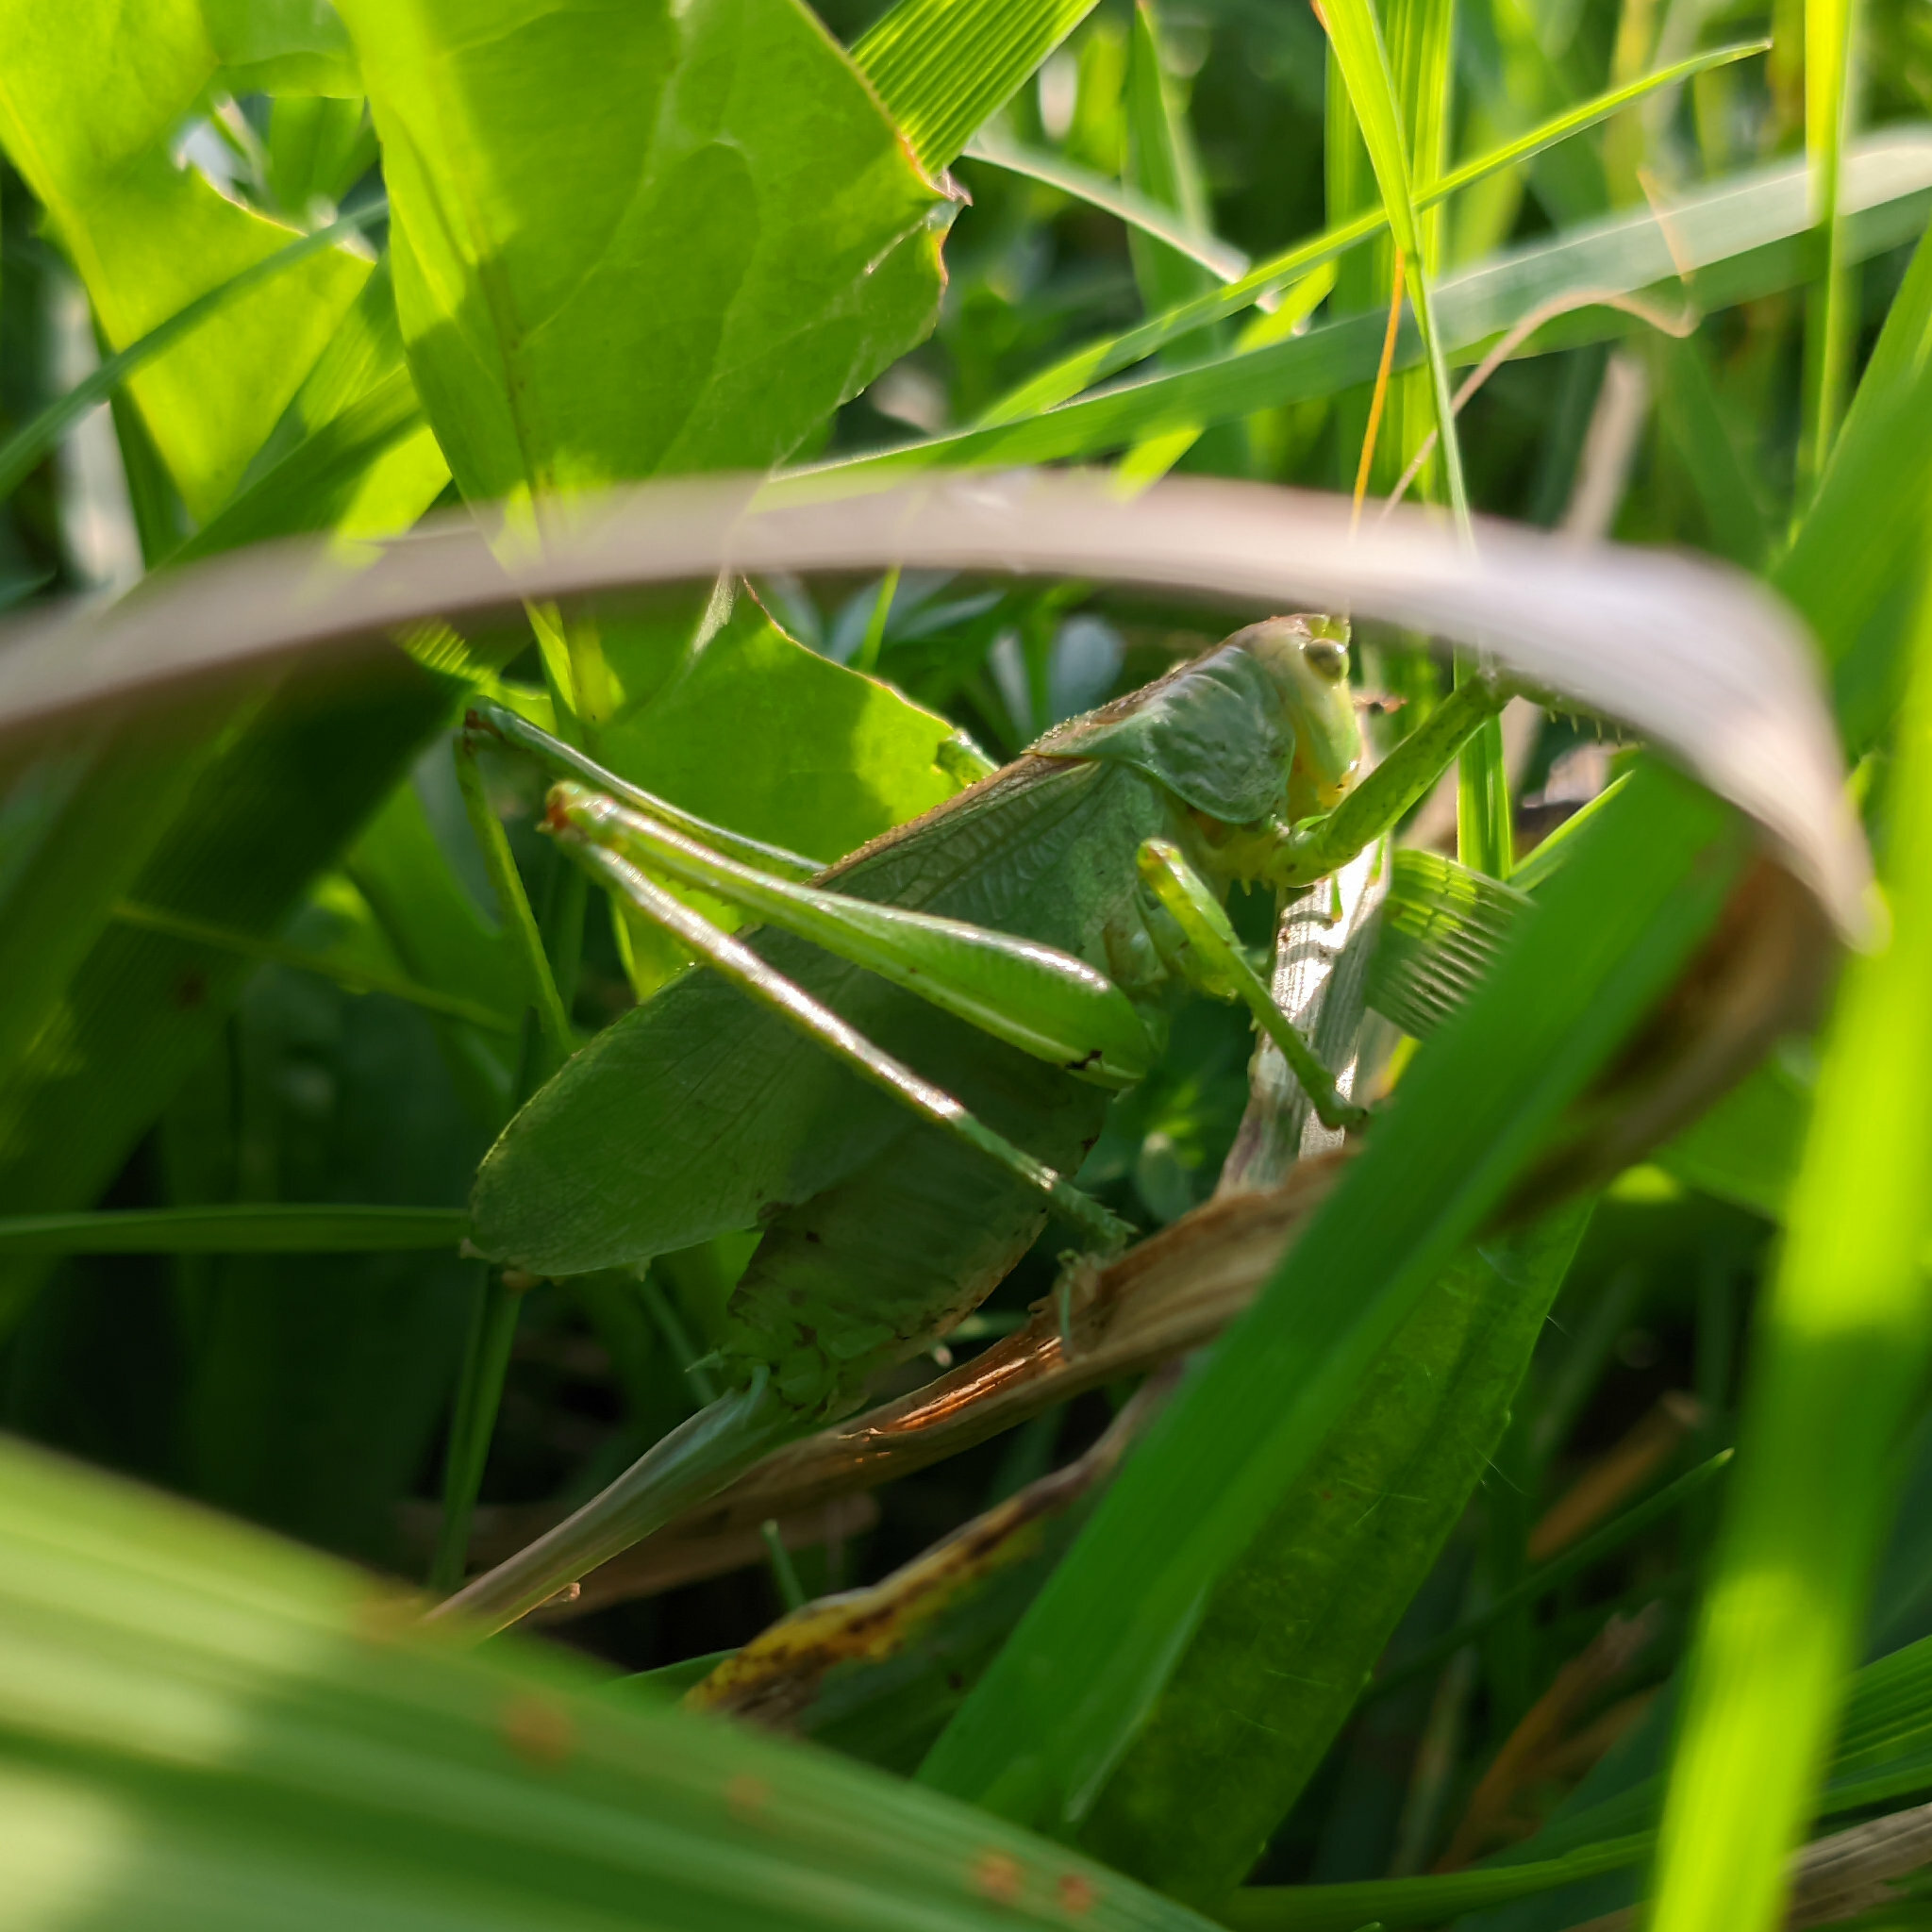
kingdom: Animalia
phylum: Arthropoda
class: Insecta
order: Orthoptera
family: Tettigoniidae
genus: Tettigonia
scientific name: Tettigonia cantans
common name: Upland green bush-cricket
